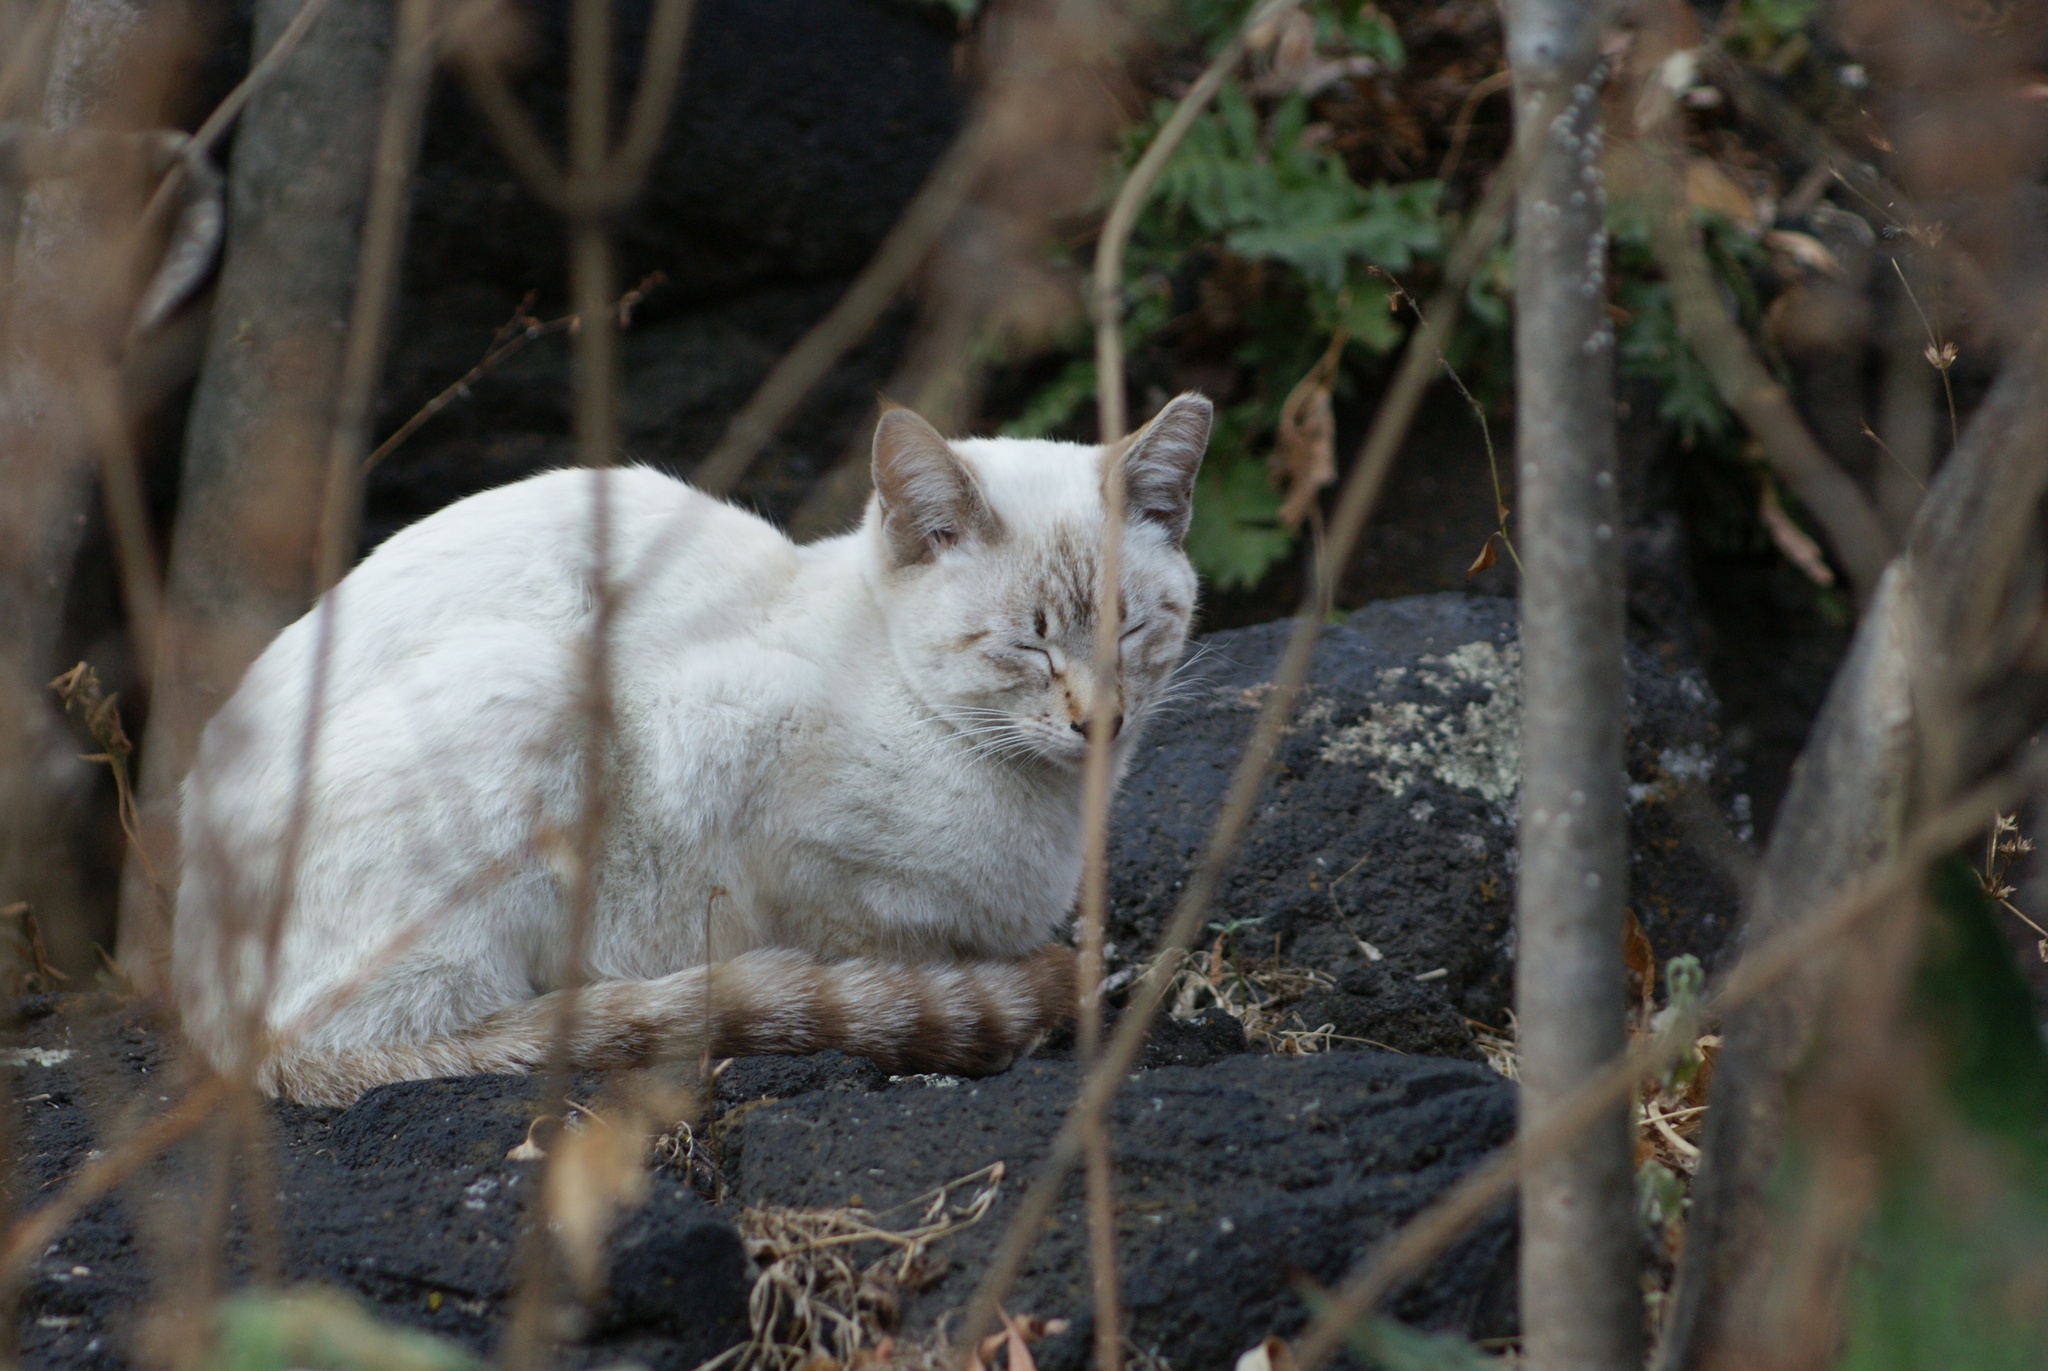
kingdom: Animalia
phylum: Chordata
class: Mammalia
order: Carnivora
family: Felidae
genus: Felis
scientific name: Felis catus
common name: Domestic cat
